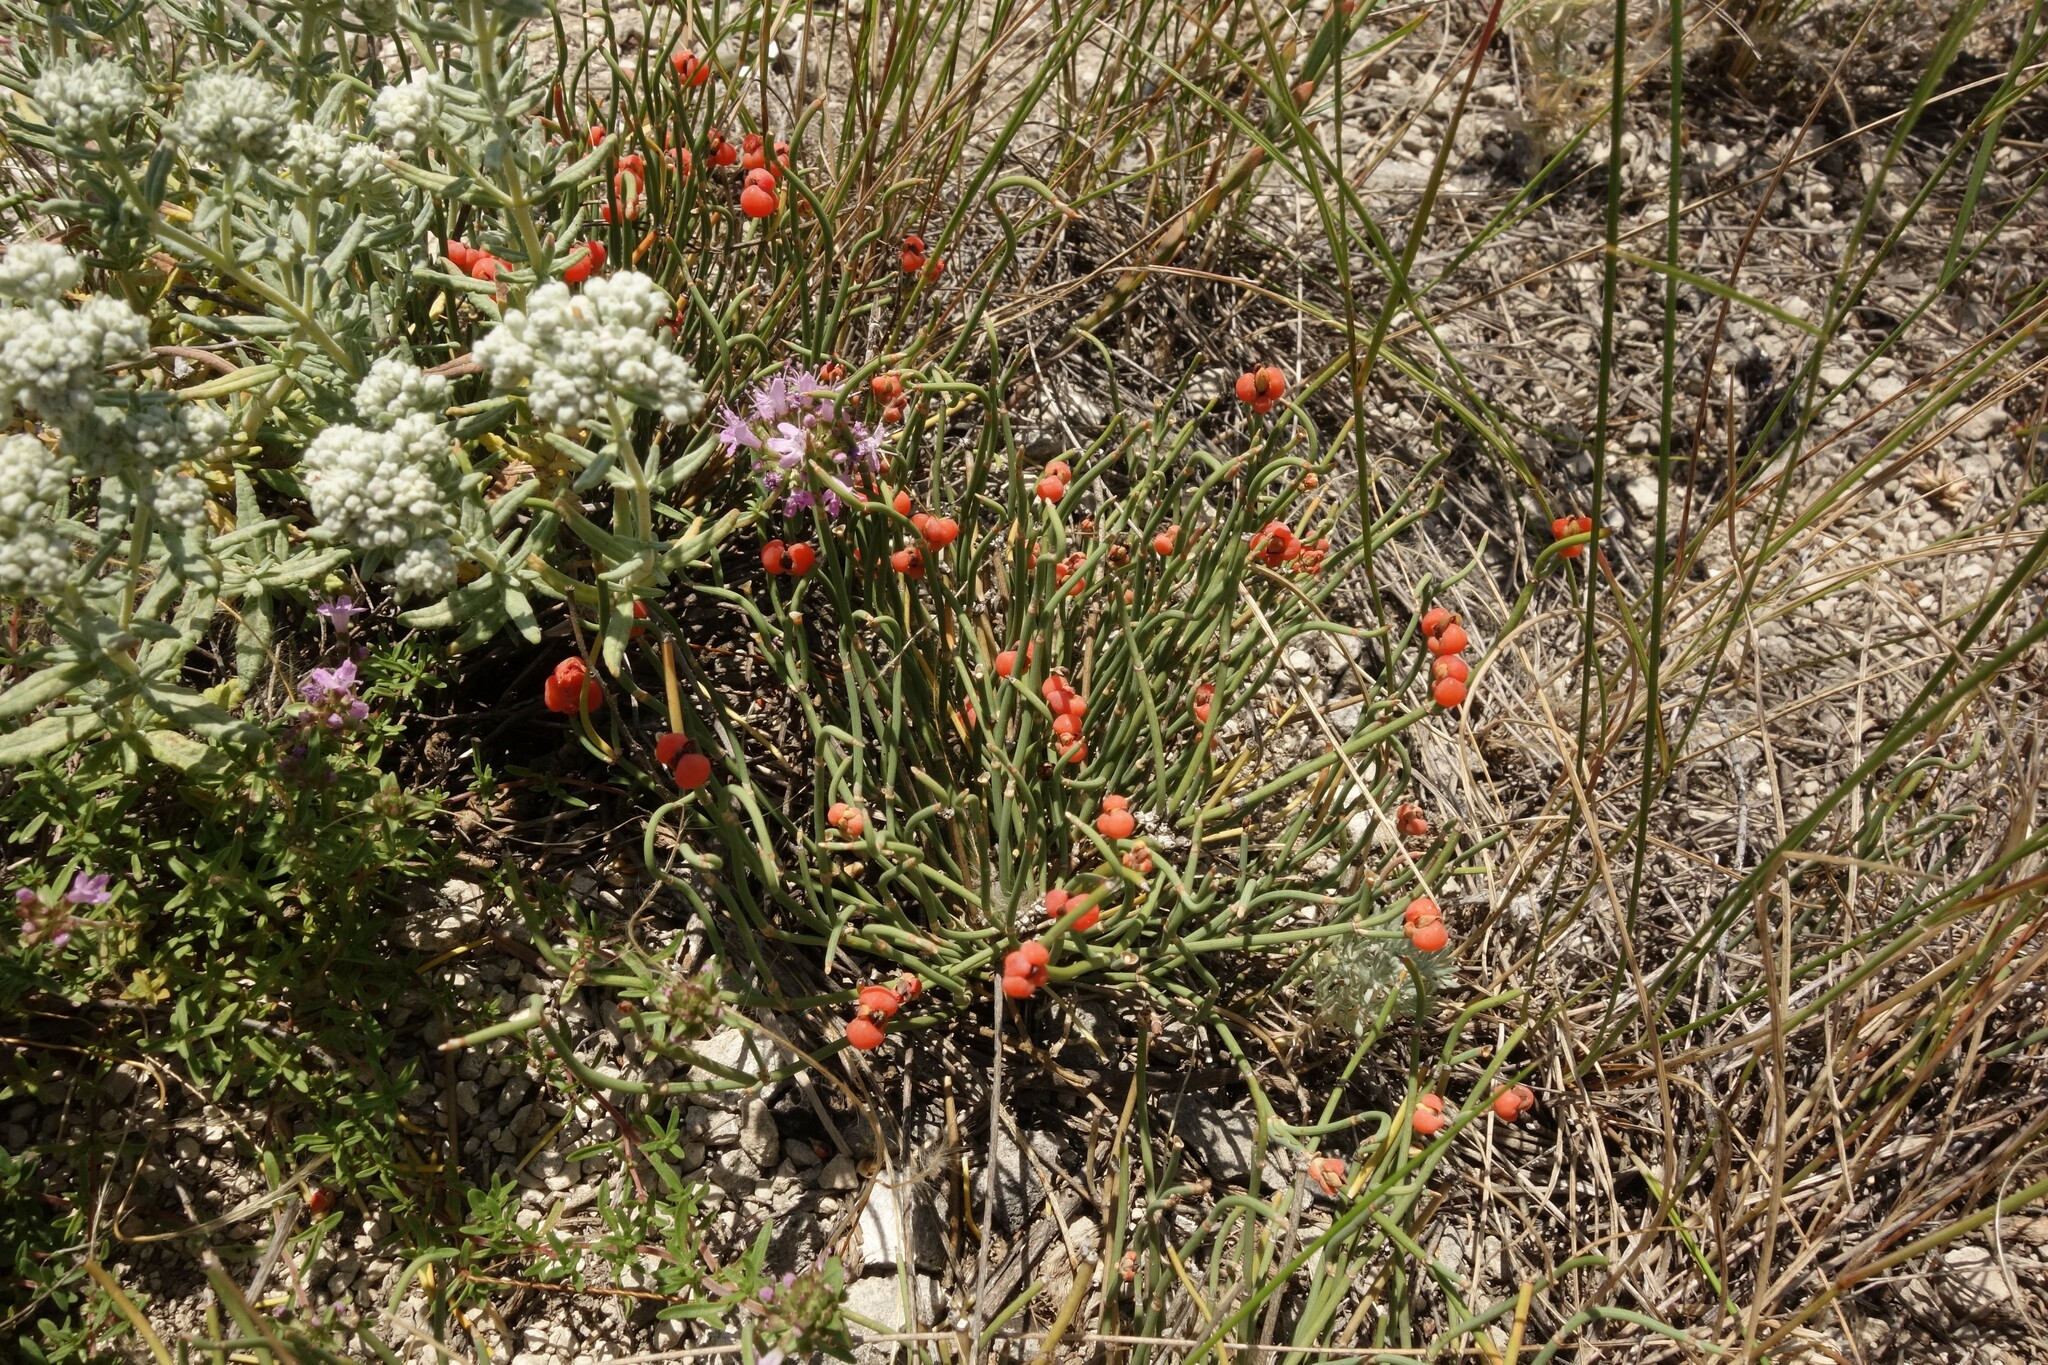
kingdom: Plantae
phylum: Tracheophyta
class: Gnetopsida
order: Ephedrales
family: Ephedraceae
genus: Ephedra
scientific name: Ephedra distachya
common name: Sea grape
